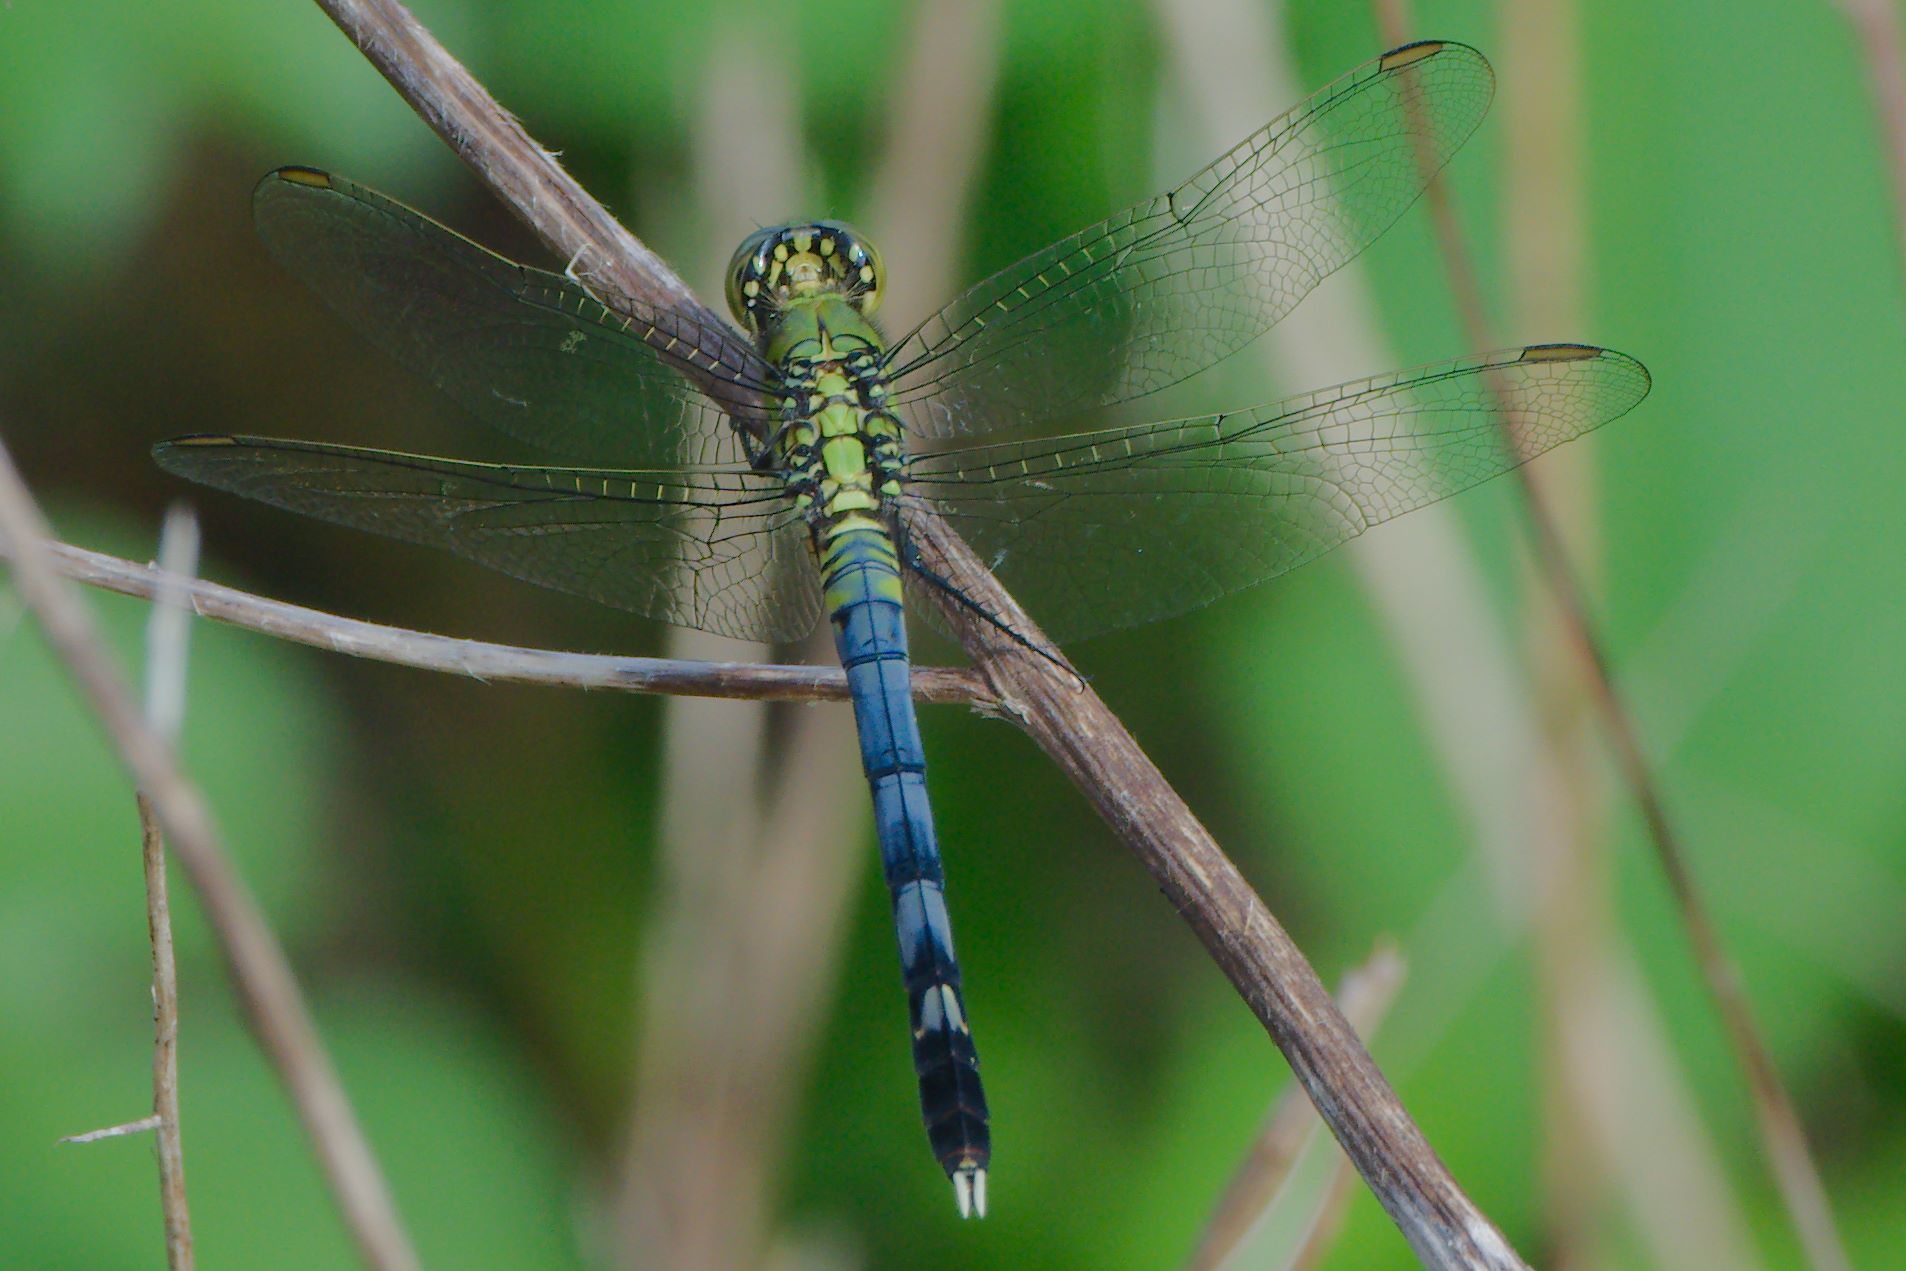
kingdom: Animalia
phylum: Arthropoda
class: Insecta
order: Odonata
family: Libellulidae
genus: Erythemis
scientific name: Erythemis simplicicollis
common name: Eastern pondhawk
